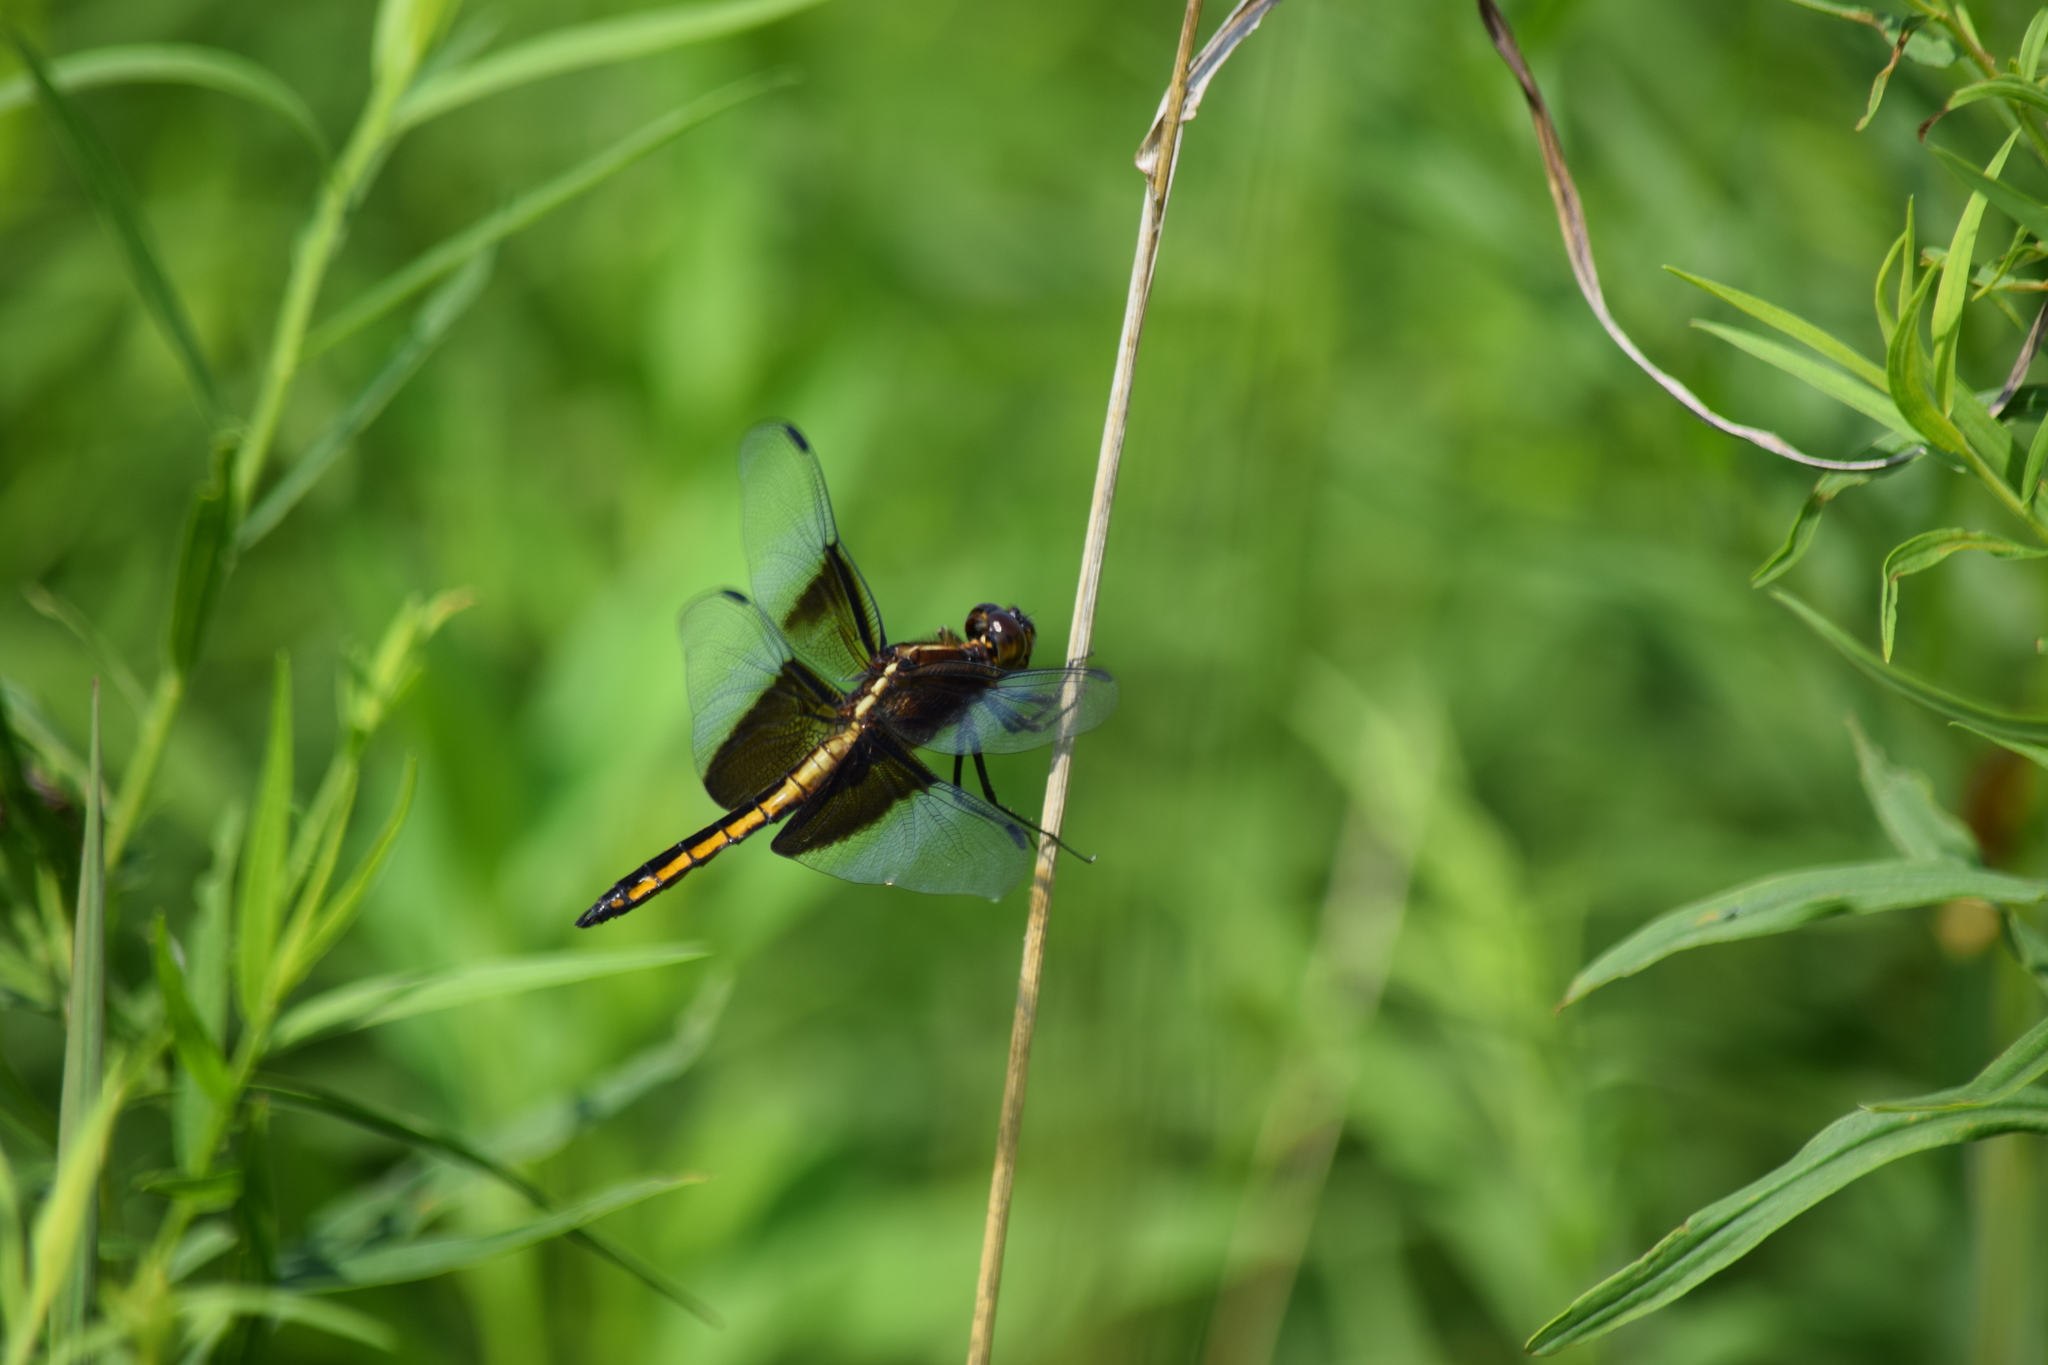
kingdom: Animalia
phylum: Arthropoda
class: Insecta
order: Odonata
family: Libellulidae
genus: Libellula
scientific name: Libellula luctuosa
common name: Widow skimmer
